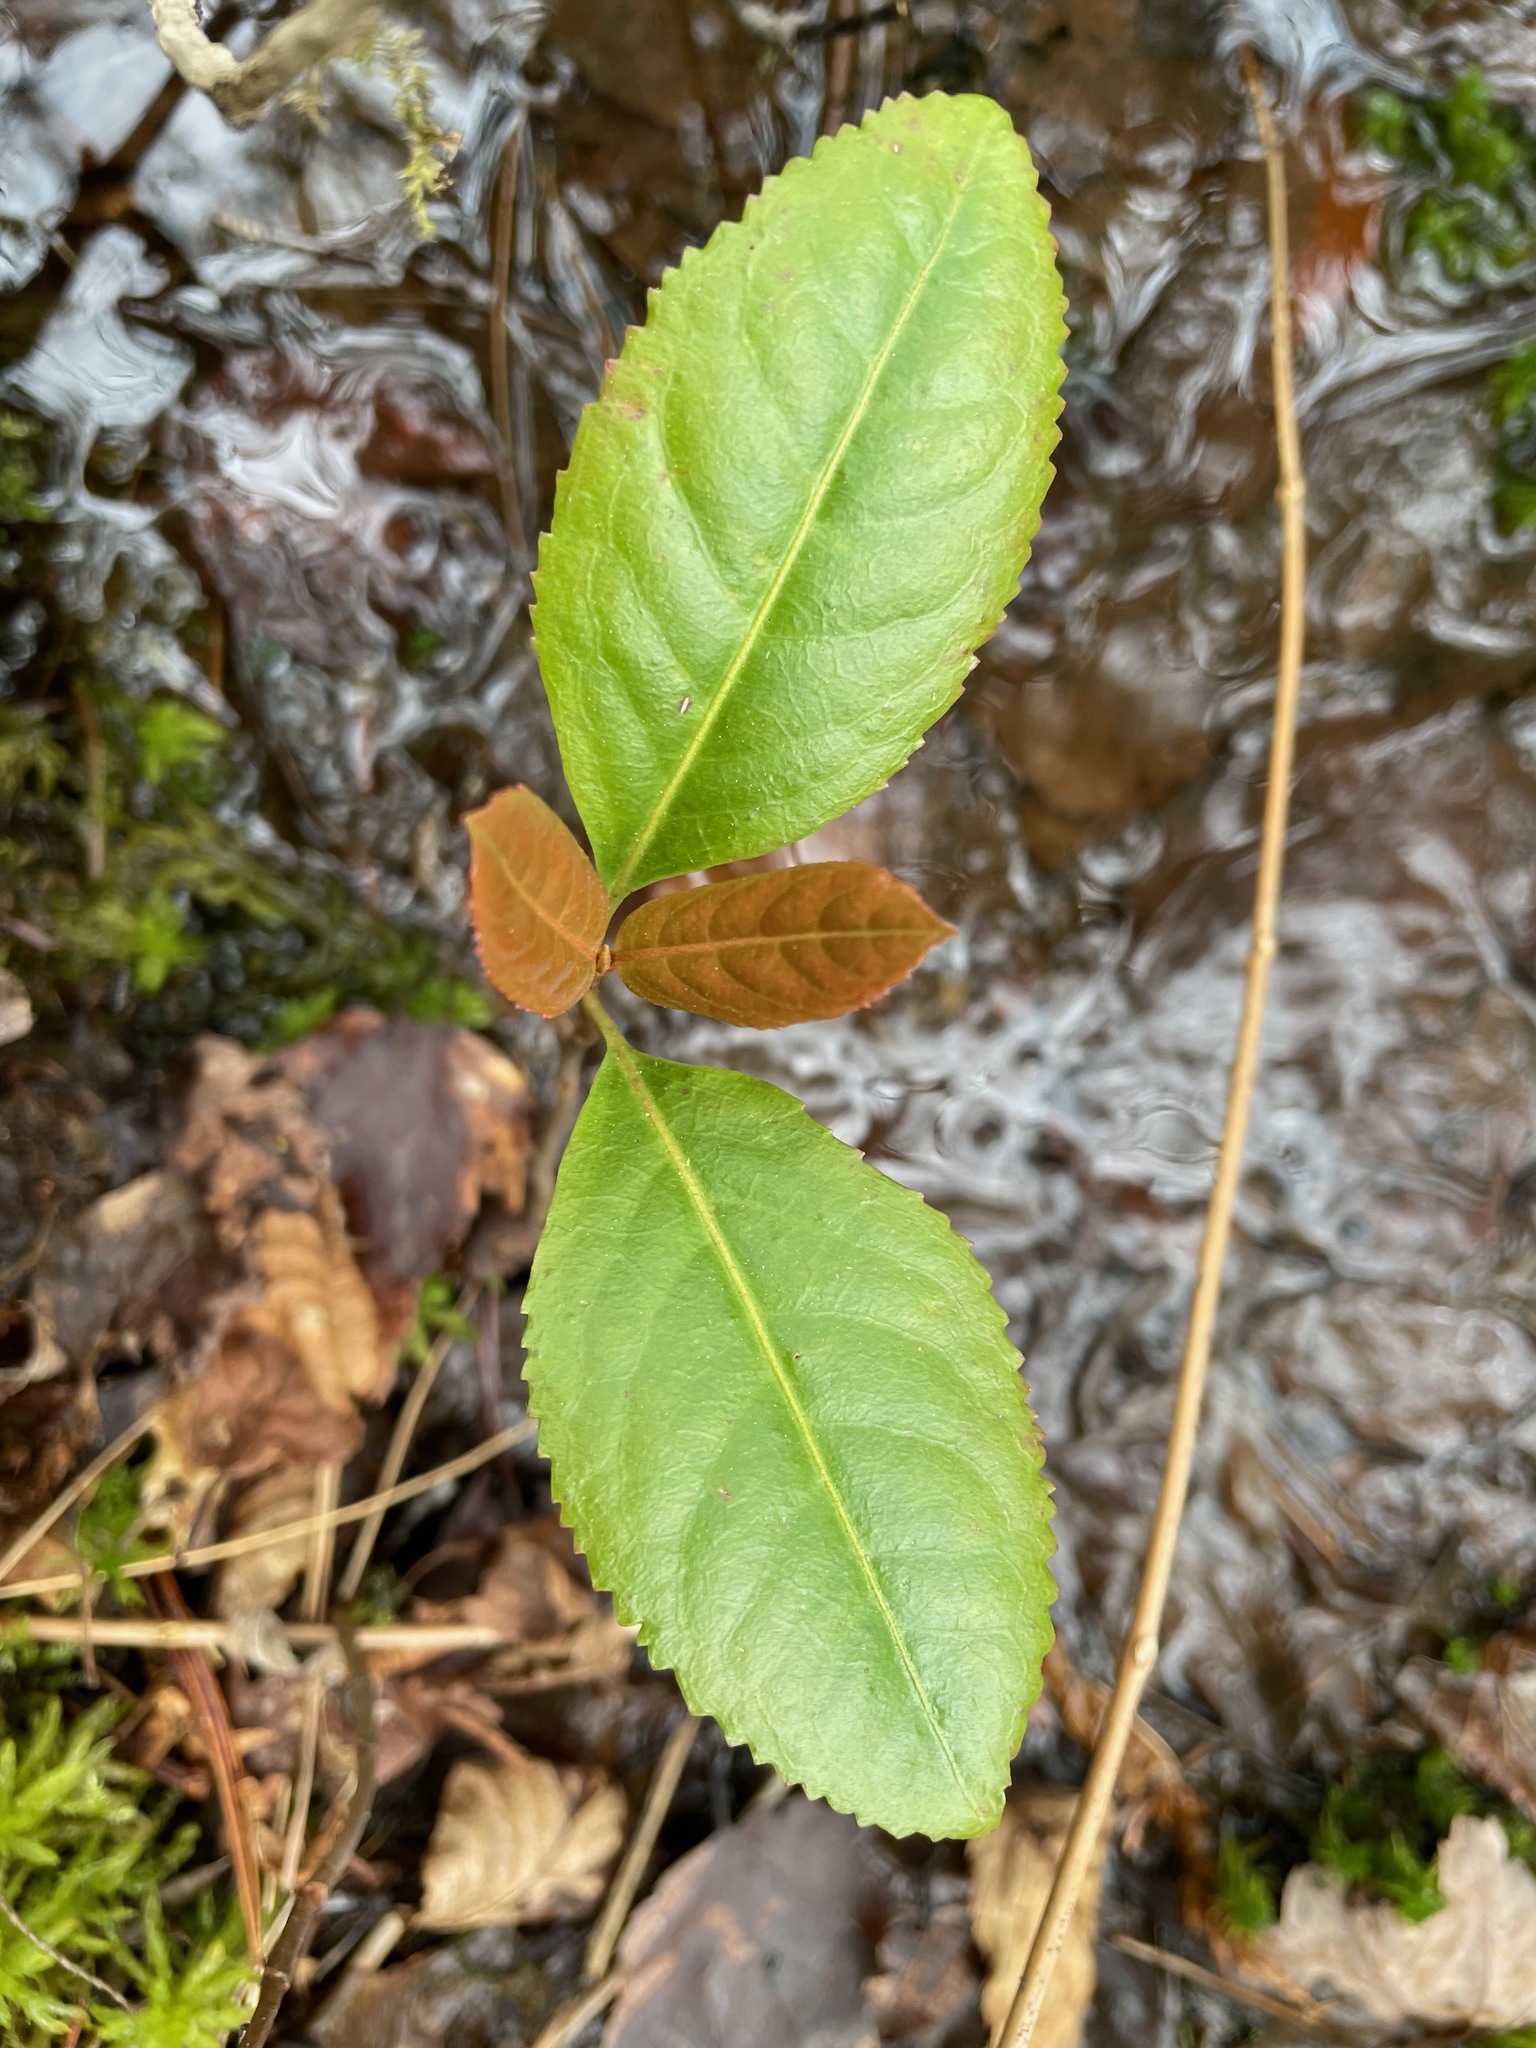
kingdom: Plantae
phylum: Tracheophyta
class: Magnoliopsida
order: Dipsacales
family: Viburnaceae
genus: Viburnum
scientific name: Viburnum cassinoides
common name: Swamp haw
